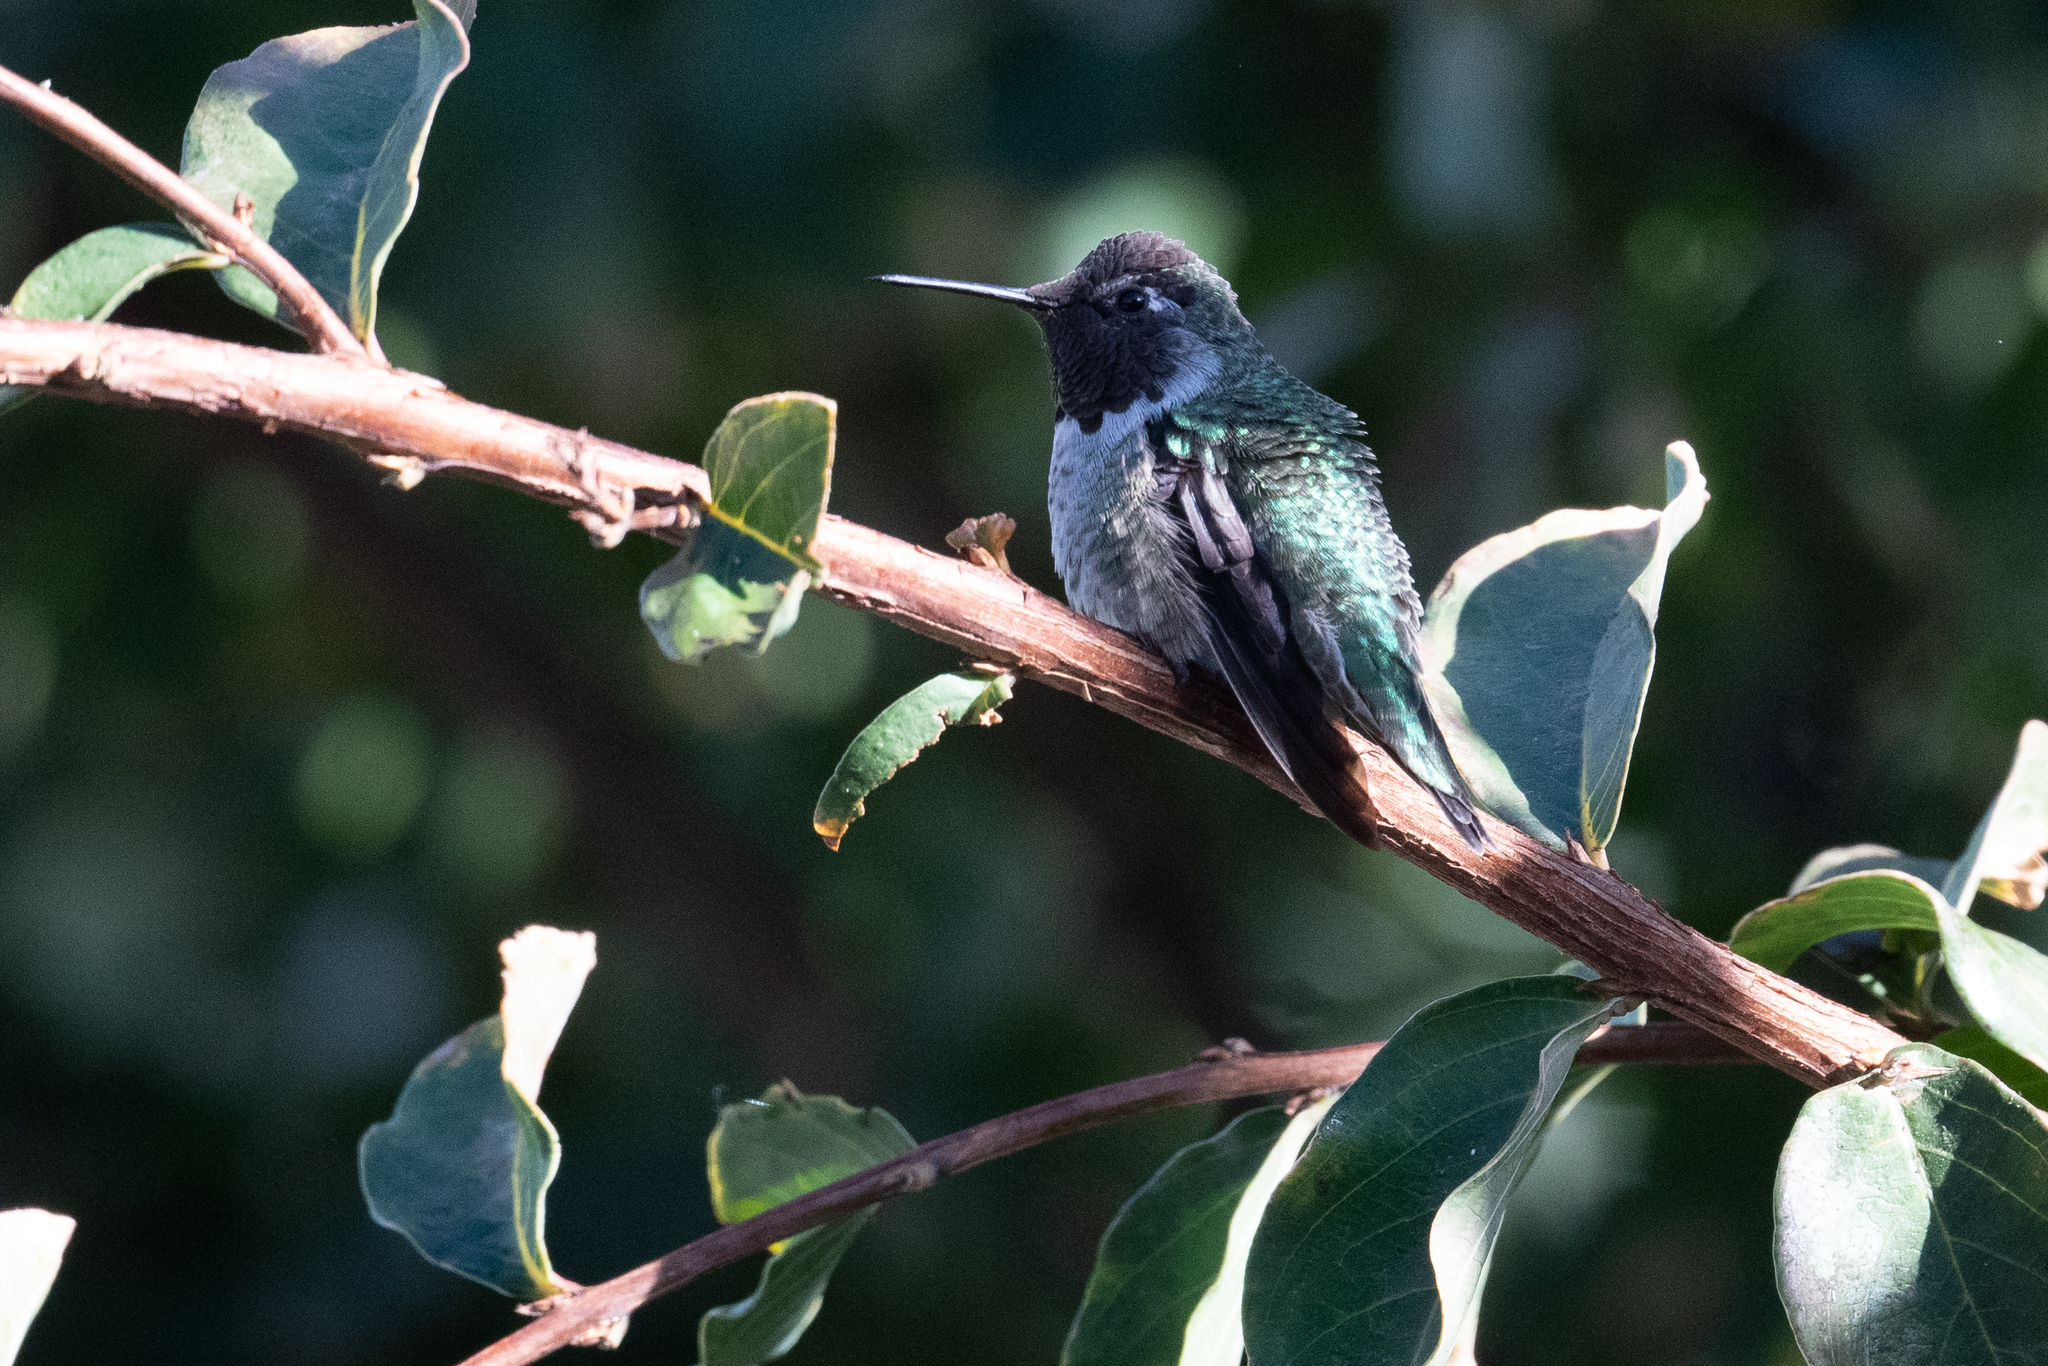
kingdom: Animalia
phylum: Chordata
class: Aves
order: Apodiformes
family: Trochilidae
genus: Calypte
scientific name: Calypte anna
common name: Anna's hummingbird
